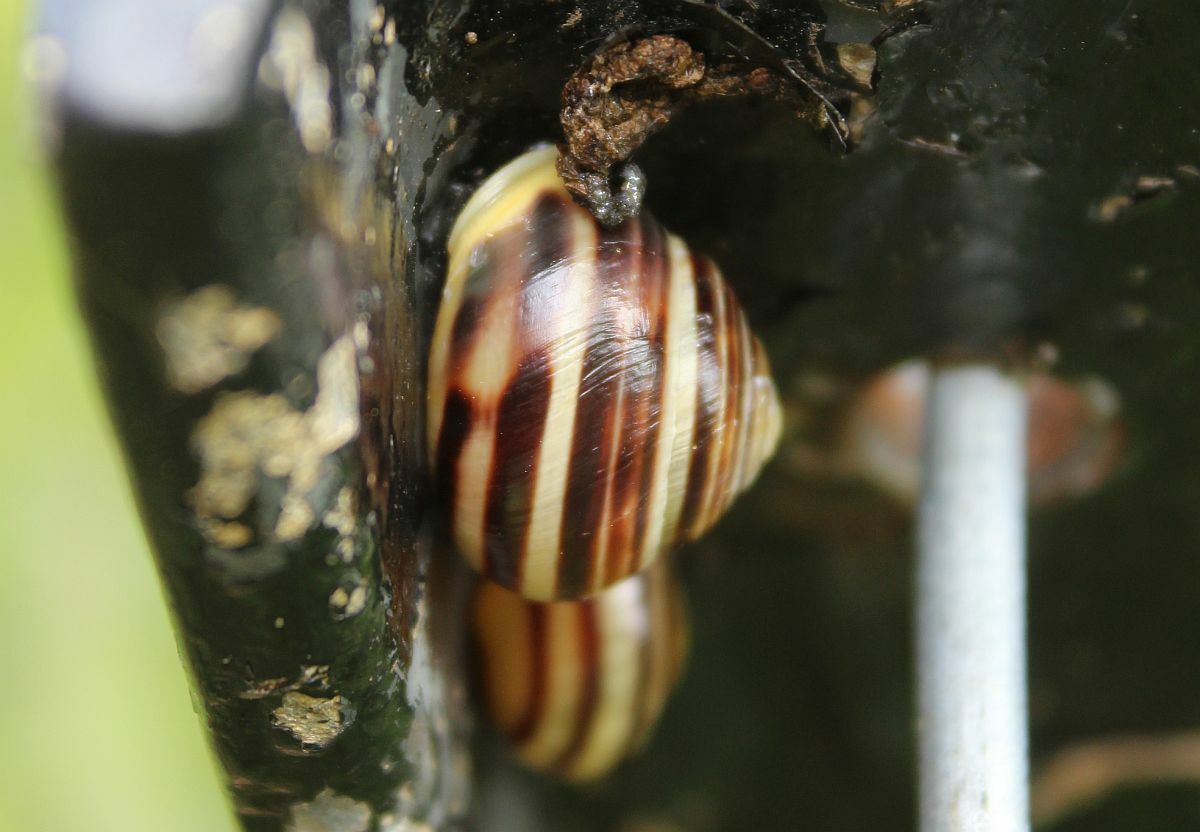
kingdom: Animalia
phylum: Mollusca
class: Gastropoda
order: Stylommatophora
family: Helicidae
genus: Cepaea
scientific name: Cepaea hortensis
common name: White-lip gardensnail
